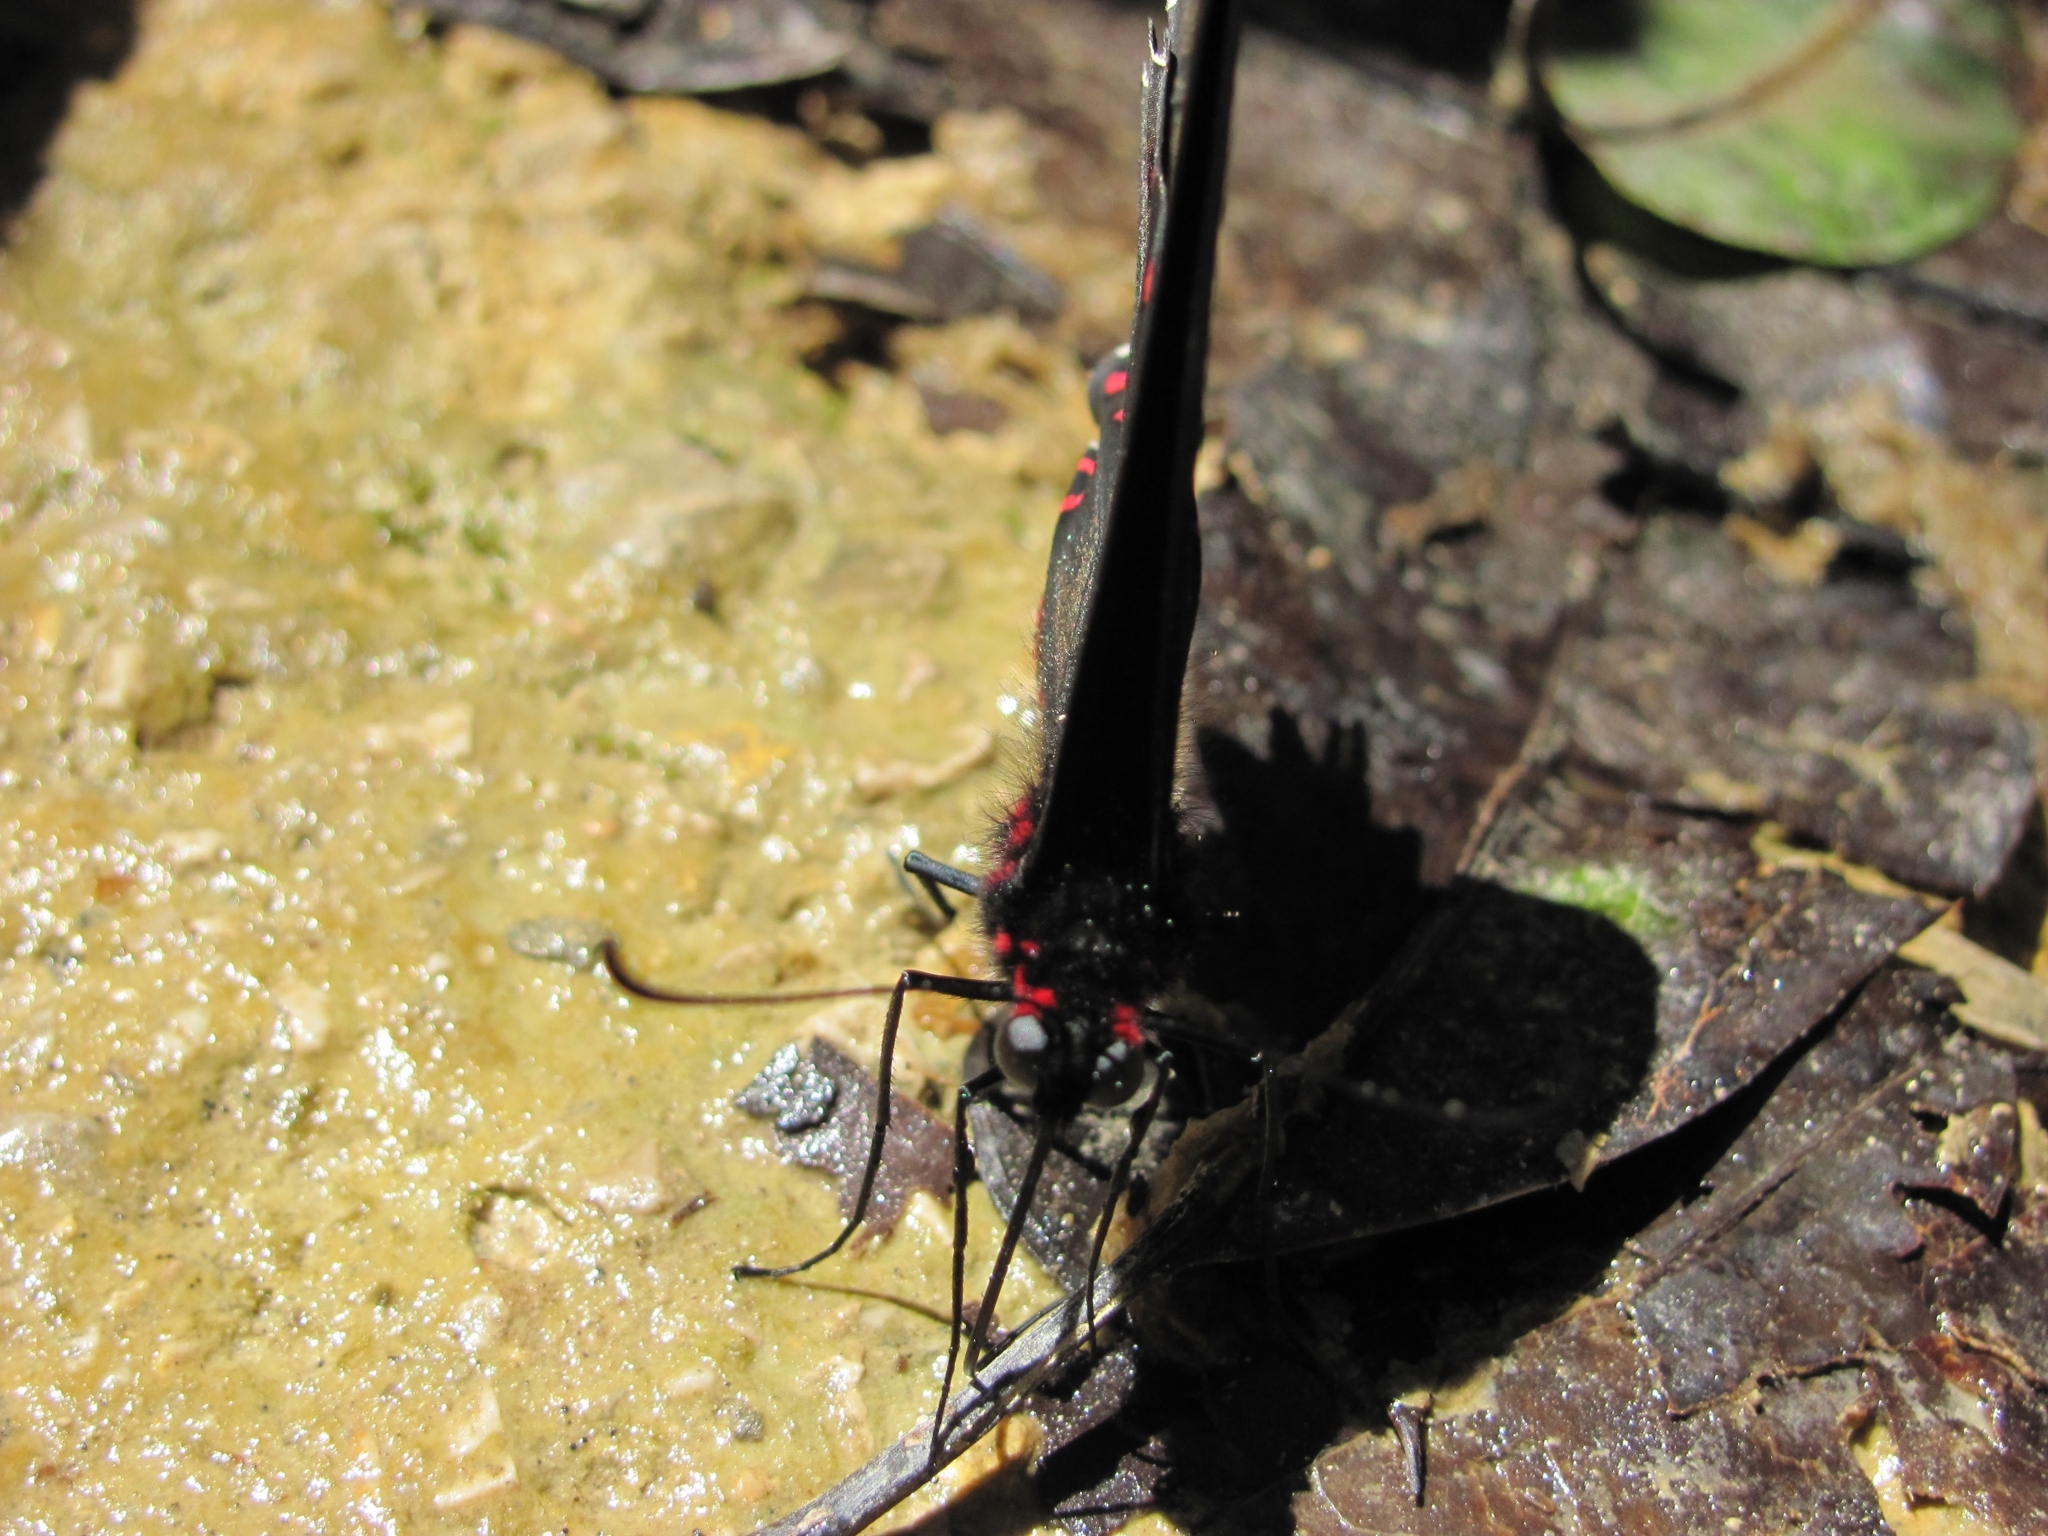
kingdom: Animalia
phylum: Arthropoda
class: Insecta
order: Lepidoptera
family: Papilionidae
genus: Parides
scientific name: Parides photinus
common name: Pink-spotted cattleheart
